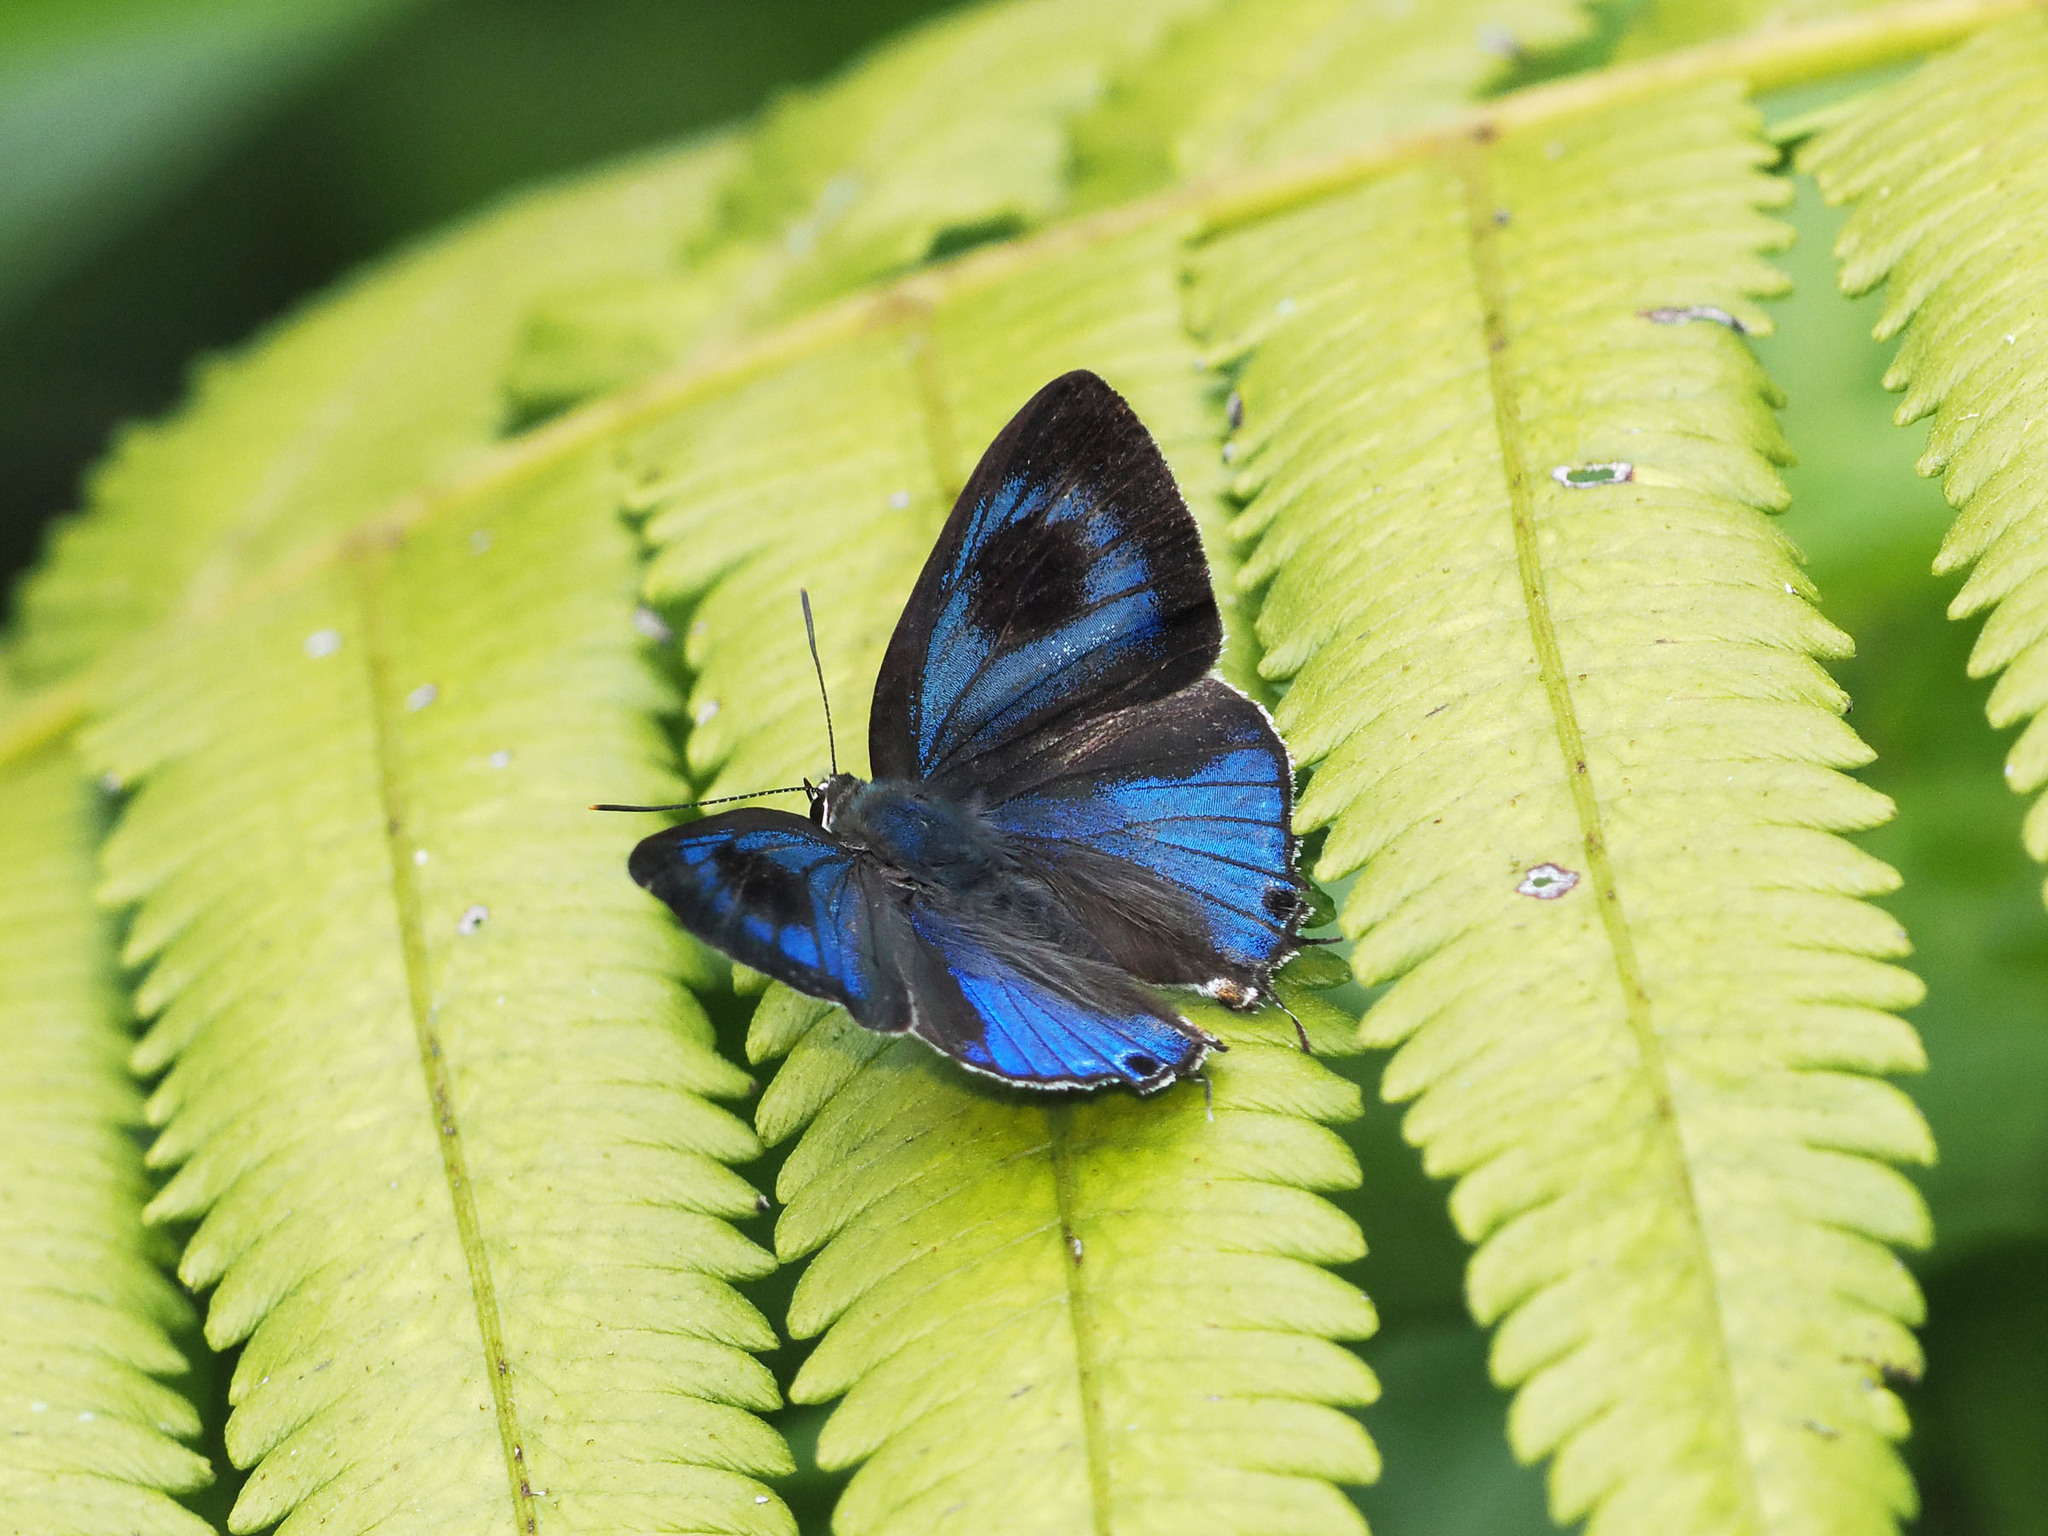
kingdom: Animalia
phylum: Arthropoda
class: Insecta
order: Lepidoptera
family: Lycaenidae
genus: Hypolycaena
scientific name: Hypolycaena phorbas
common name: Black-spotted flash
